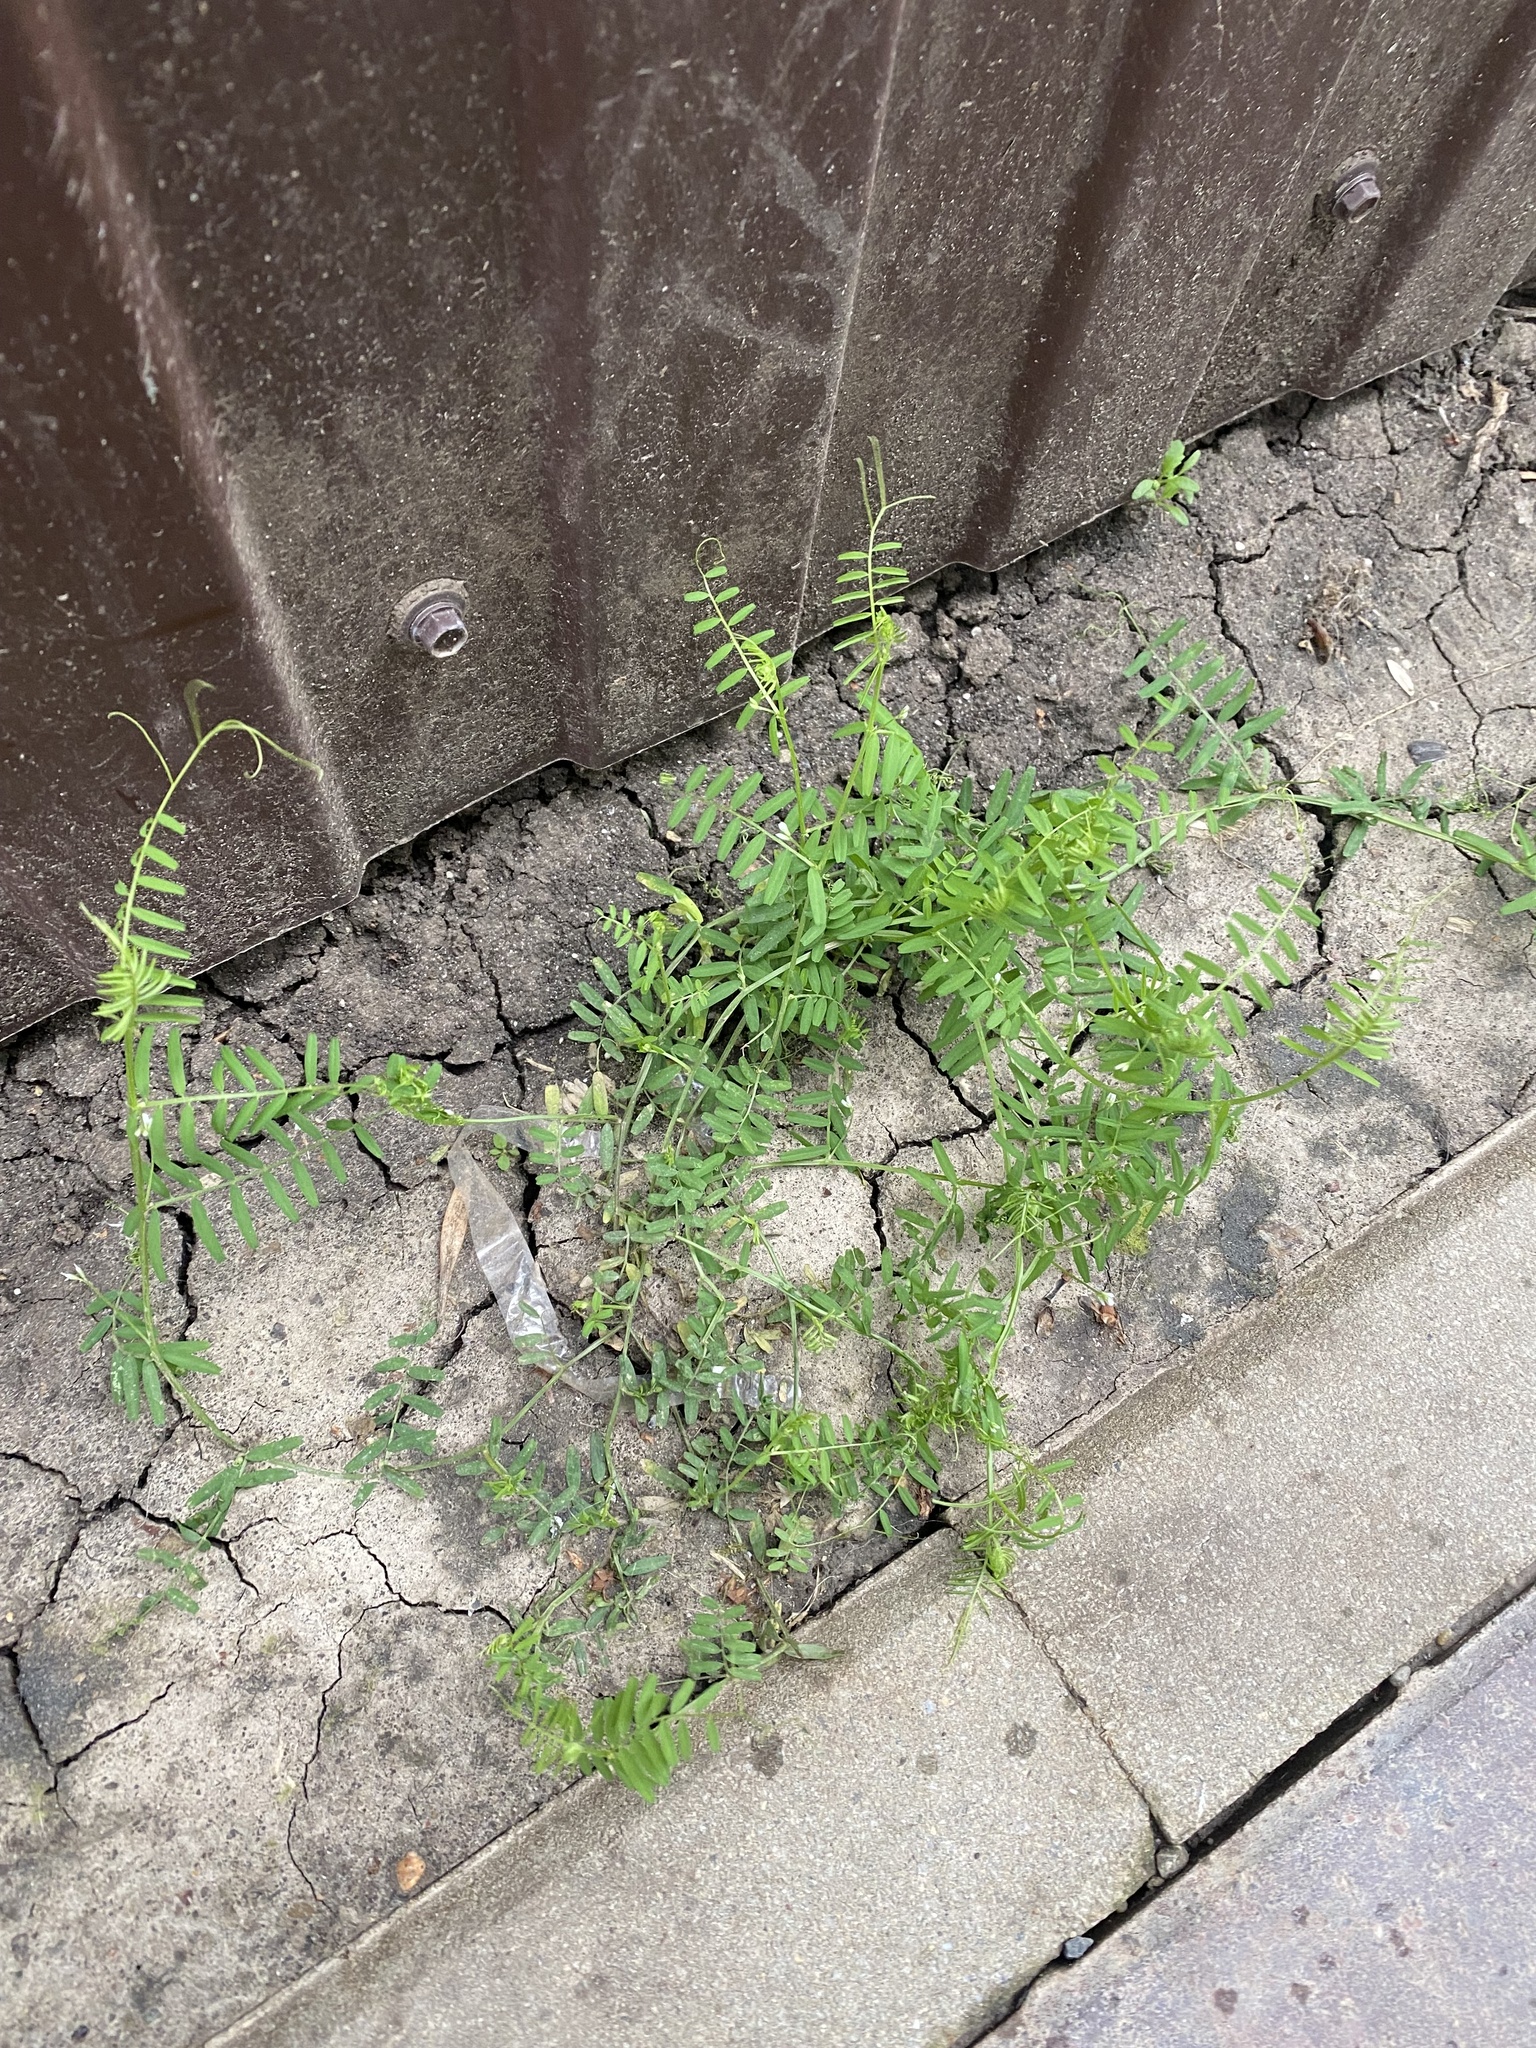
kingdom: Plantae
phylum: Tracheophyta
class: Magnoliopsida
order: Fabales
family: Fabaceae
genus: Vicia
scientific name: Vicia tetrasperma
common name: Smooth tare
